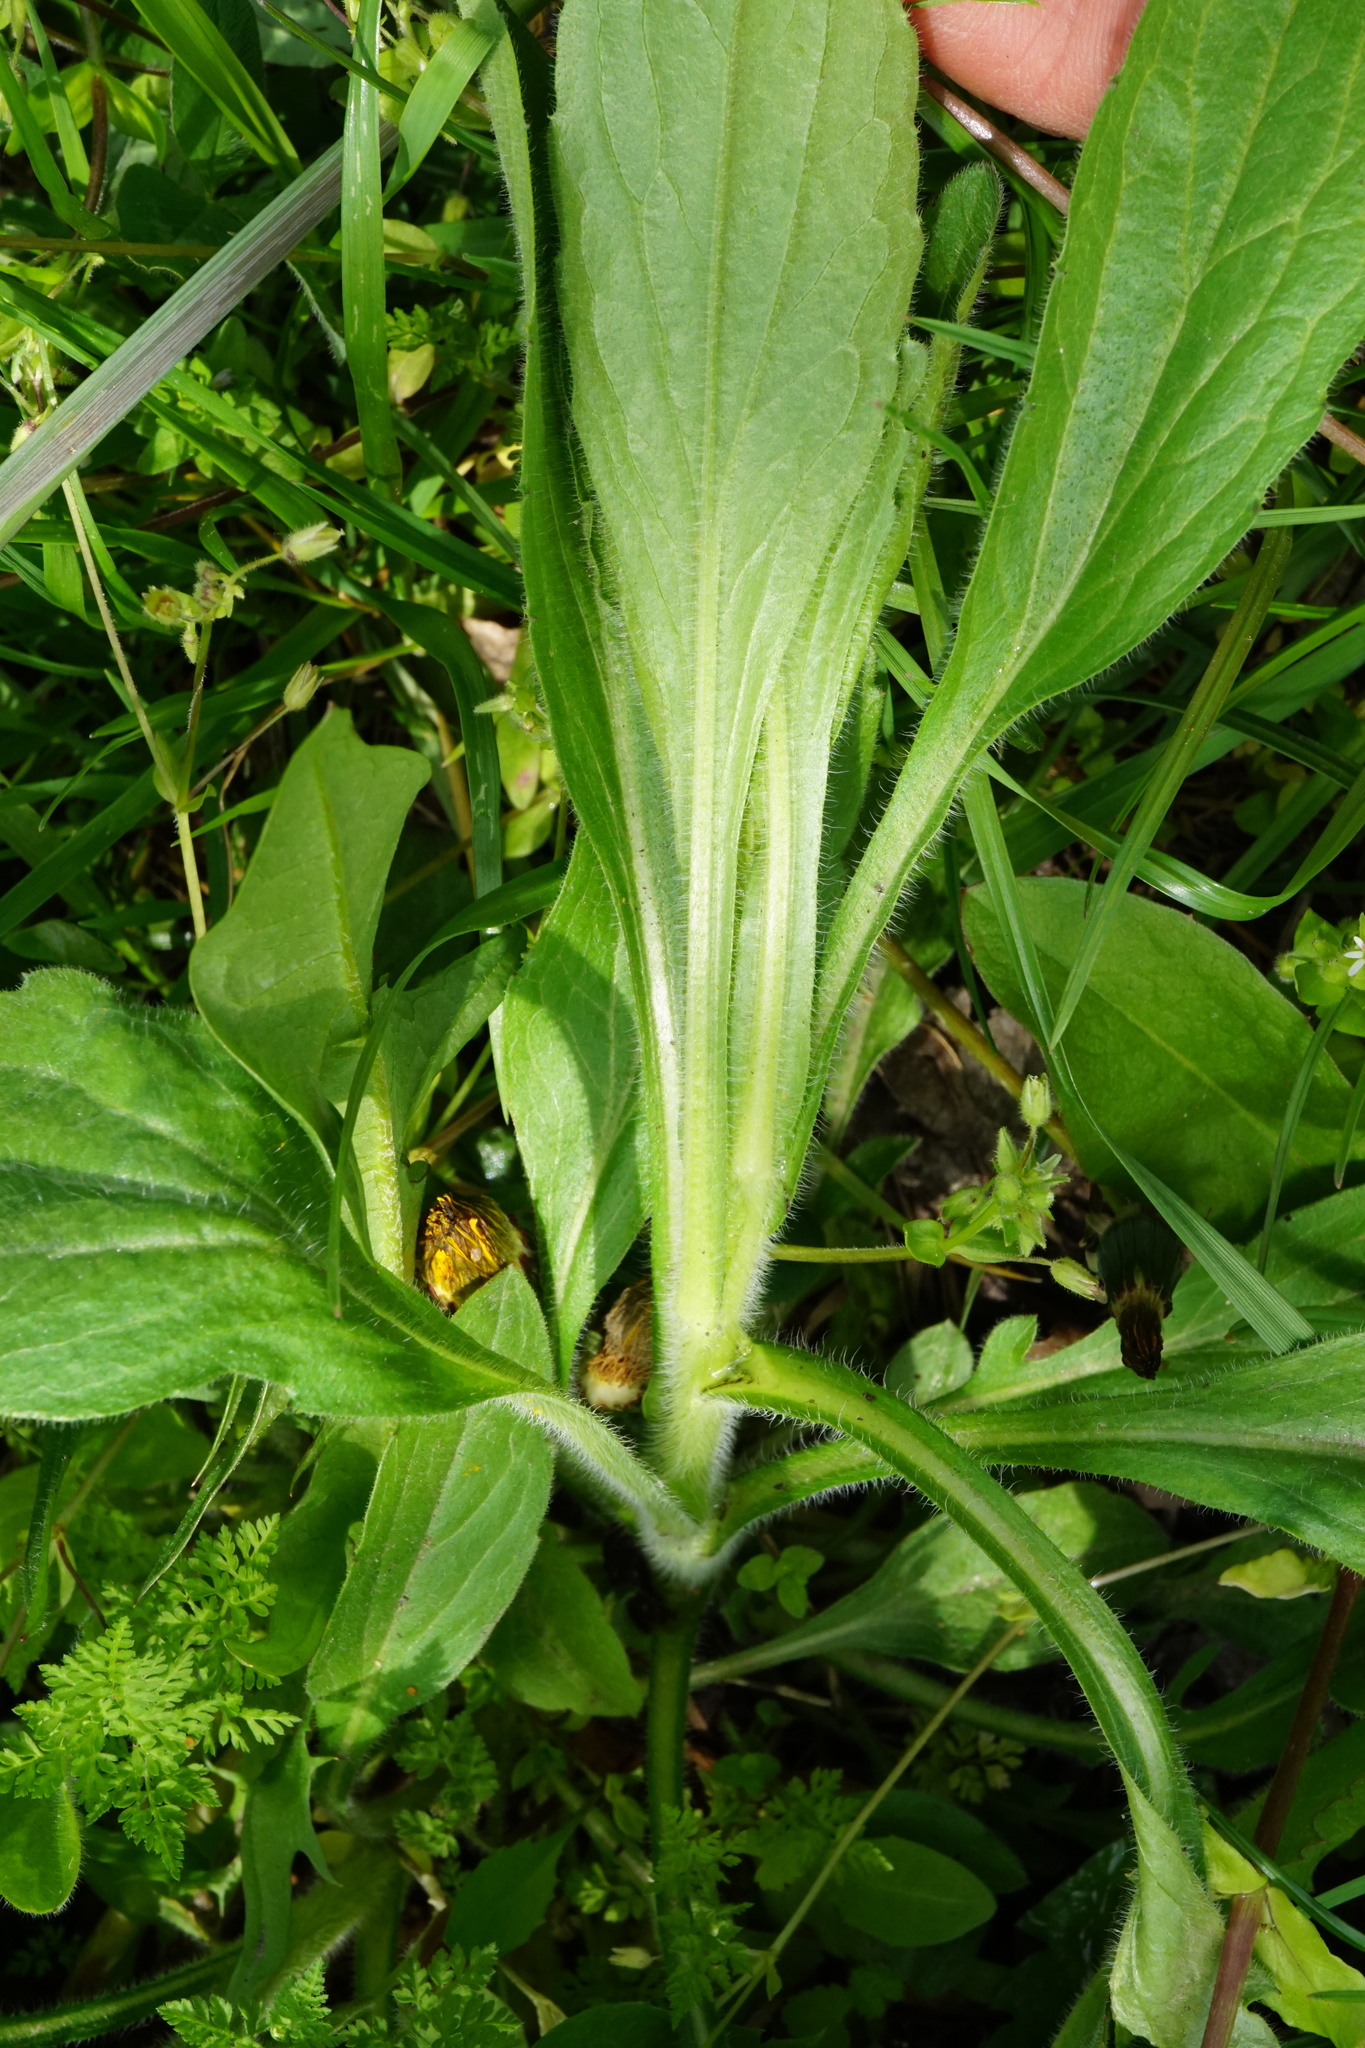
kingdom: Plantae
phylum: Tracheophyta
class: Magnoliopsida
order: Asterales
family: Asteraceae
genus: Erigeron
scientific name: Erigeron annuus
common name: Tall fleabane
